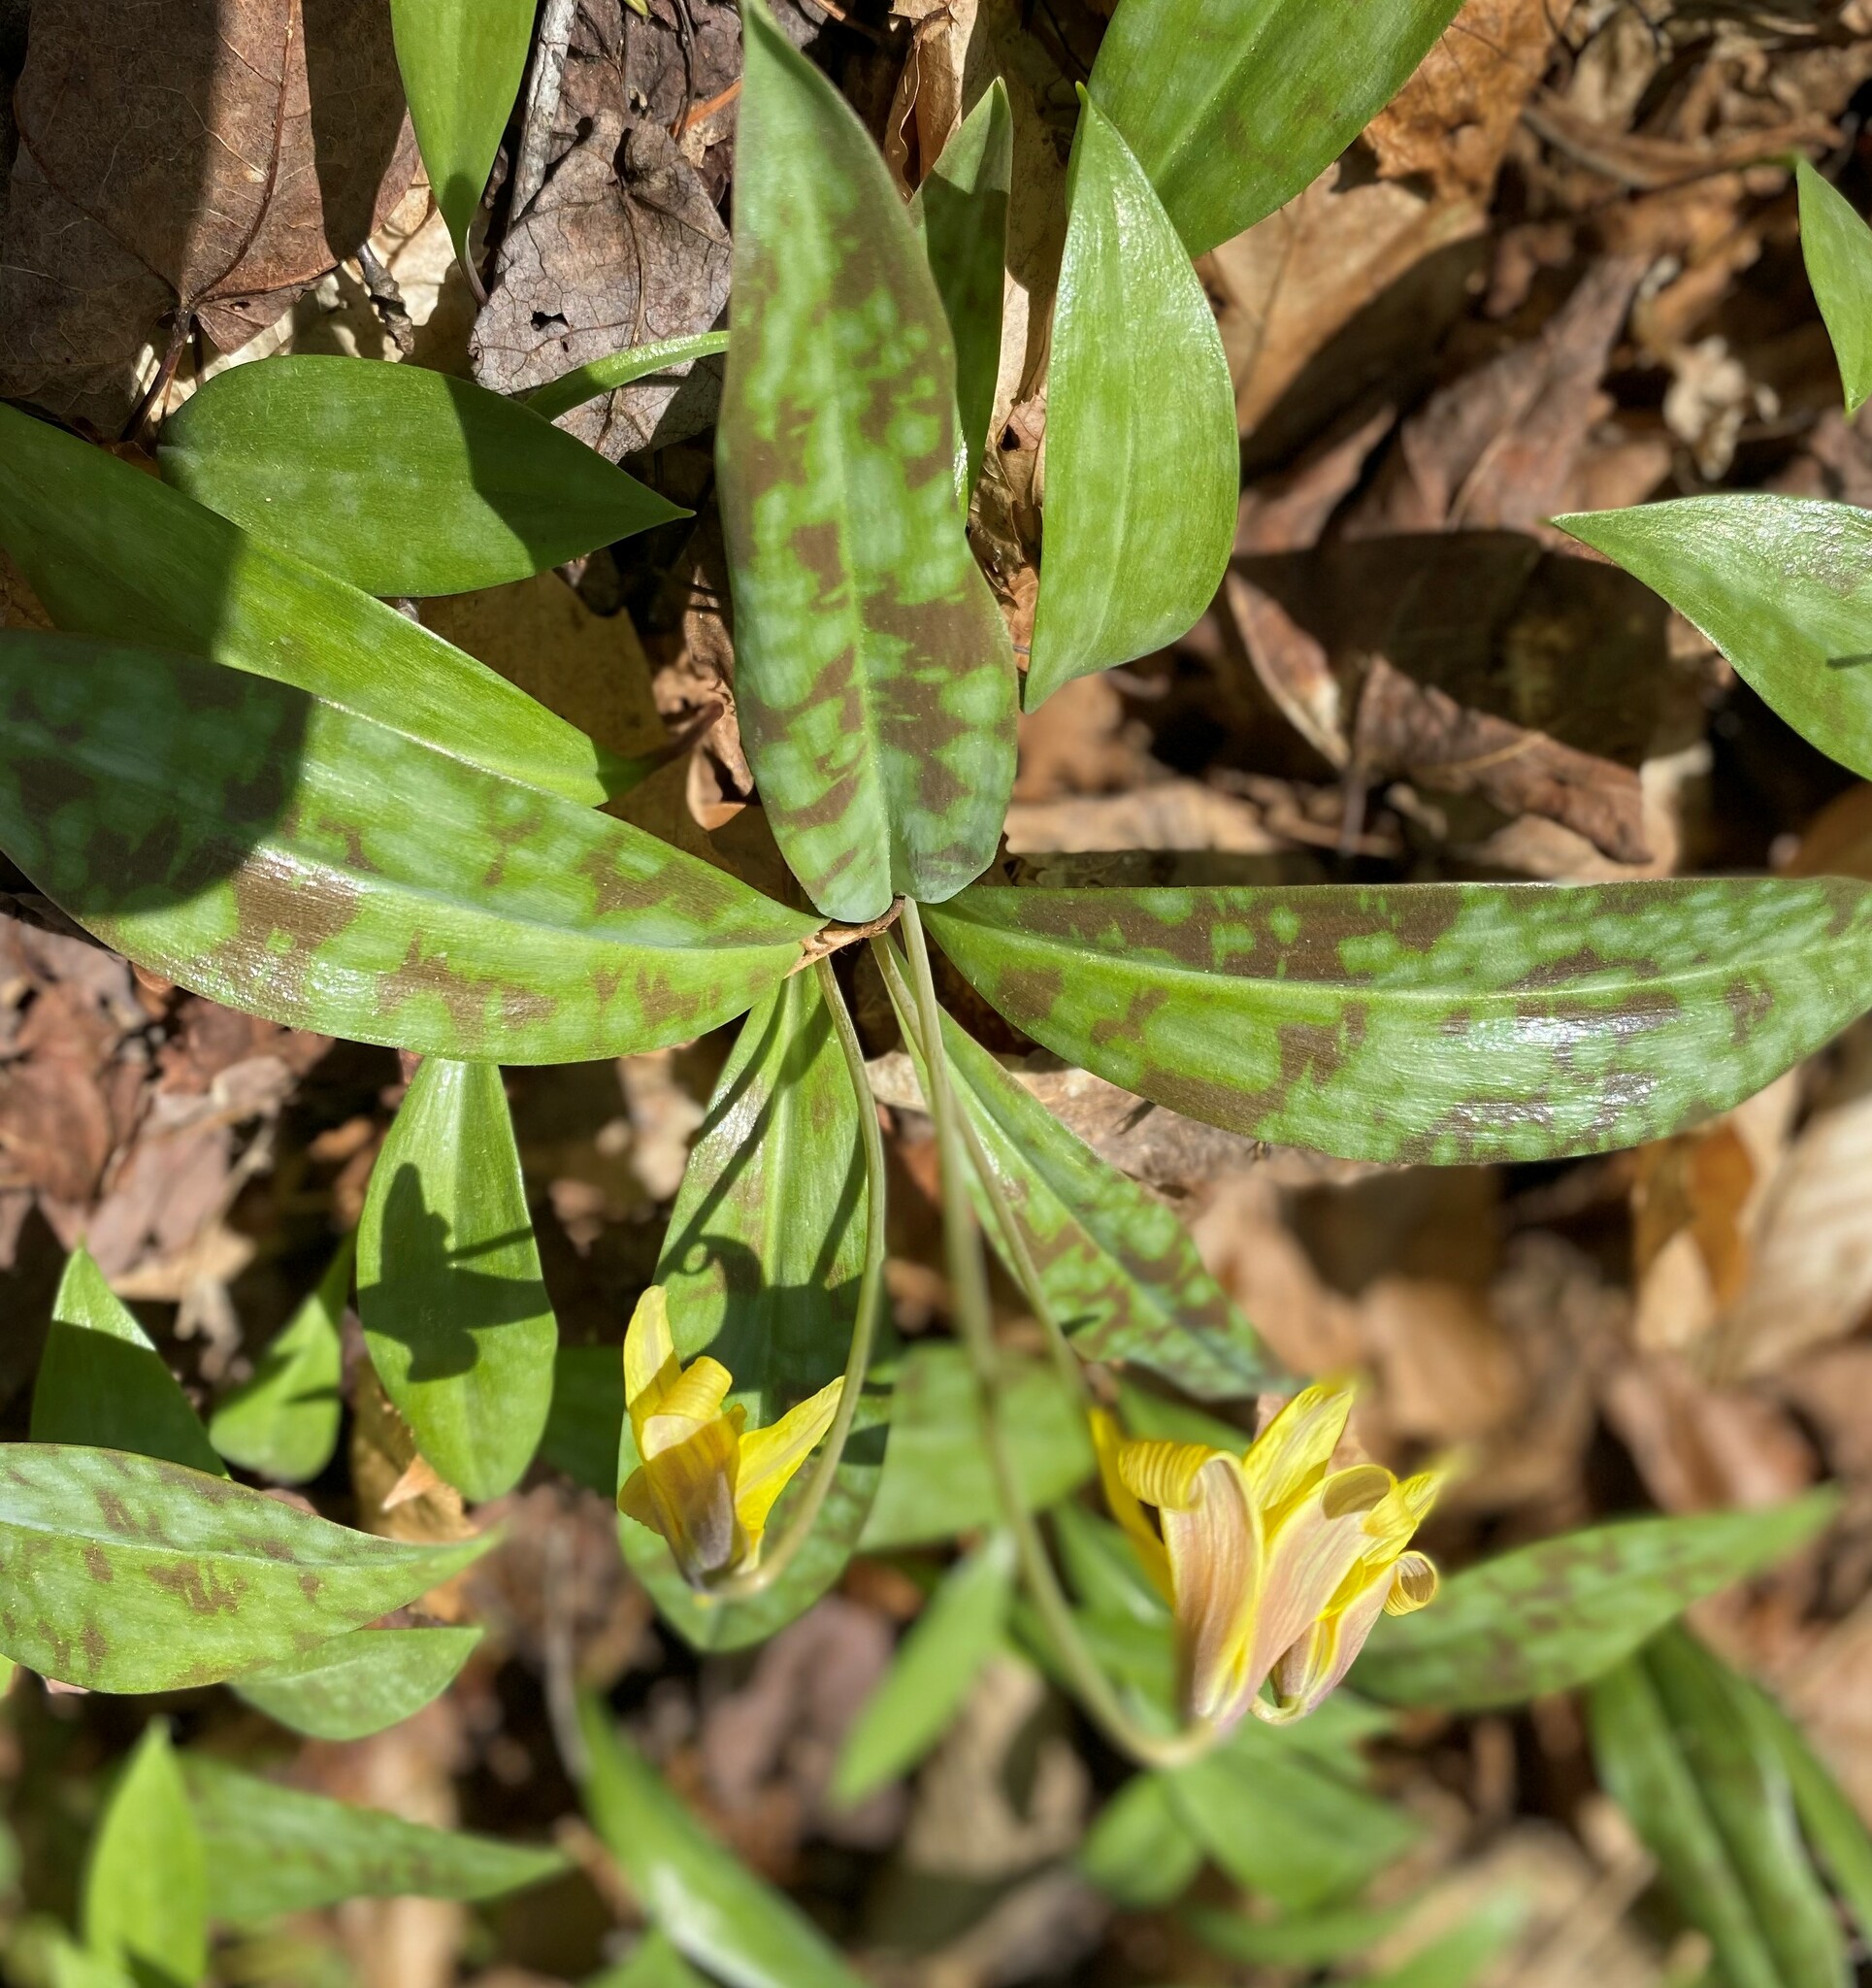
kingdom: Plantae
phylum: Tracheophyta
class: Liliopsida
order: Liliales
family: Liliaceae
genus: Erythronium
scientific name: Erythronium americanum
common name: Yellow adder's-tongue
